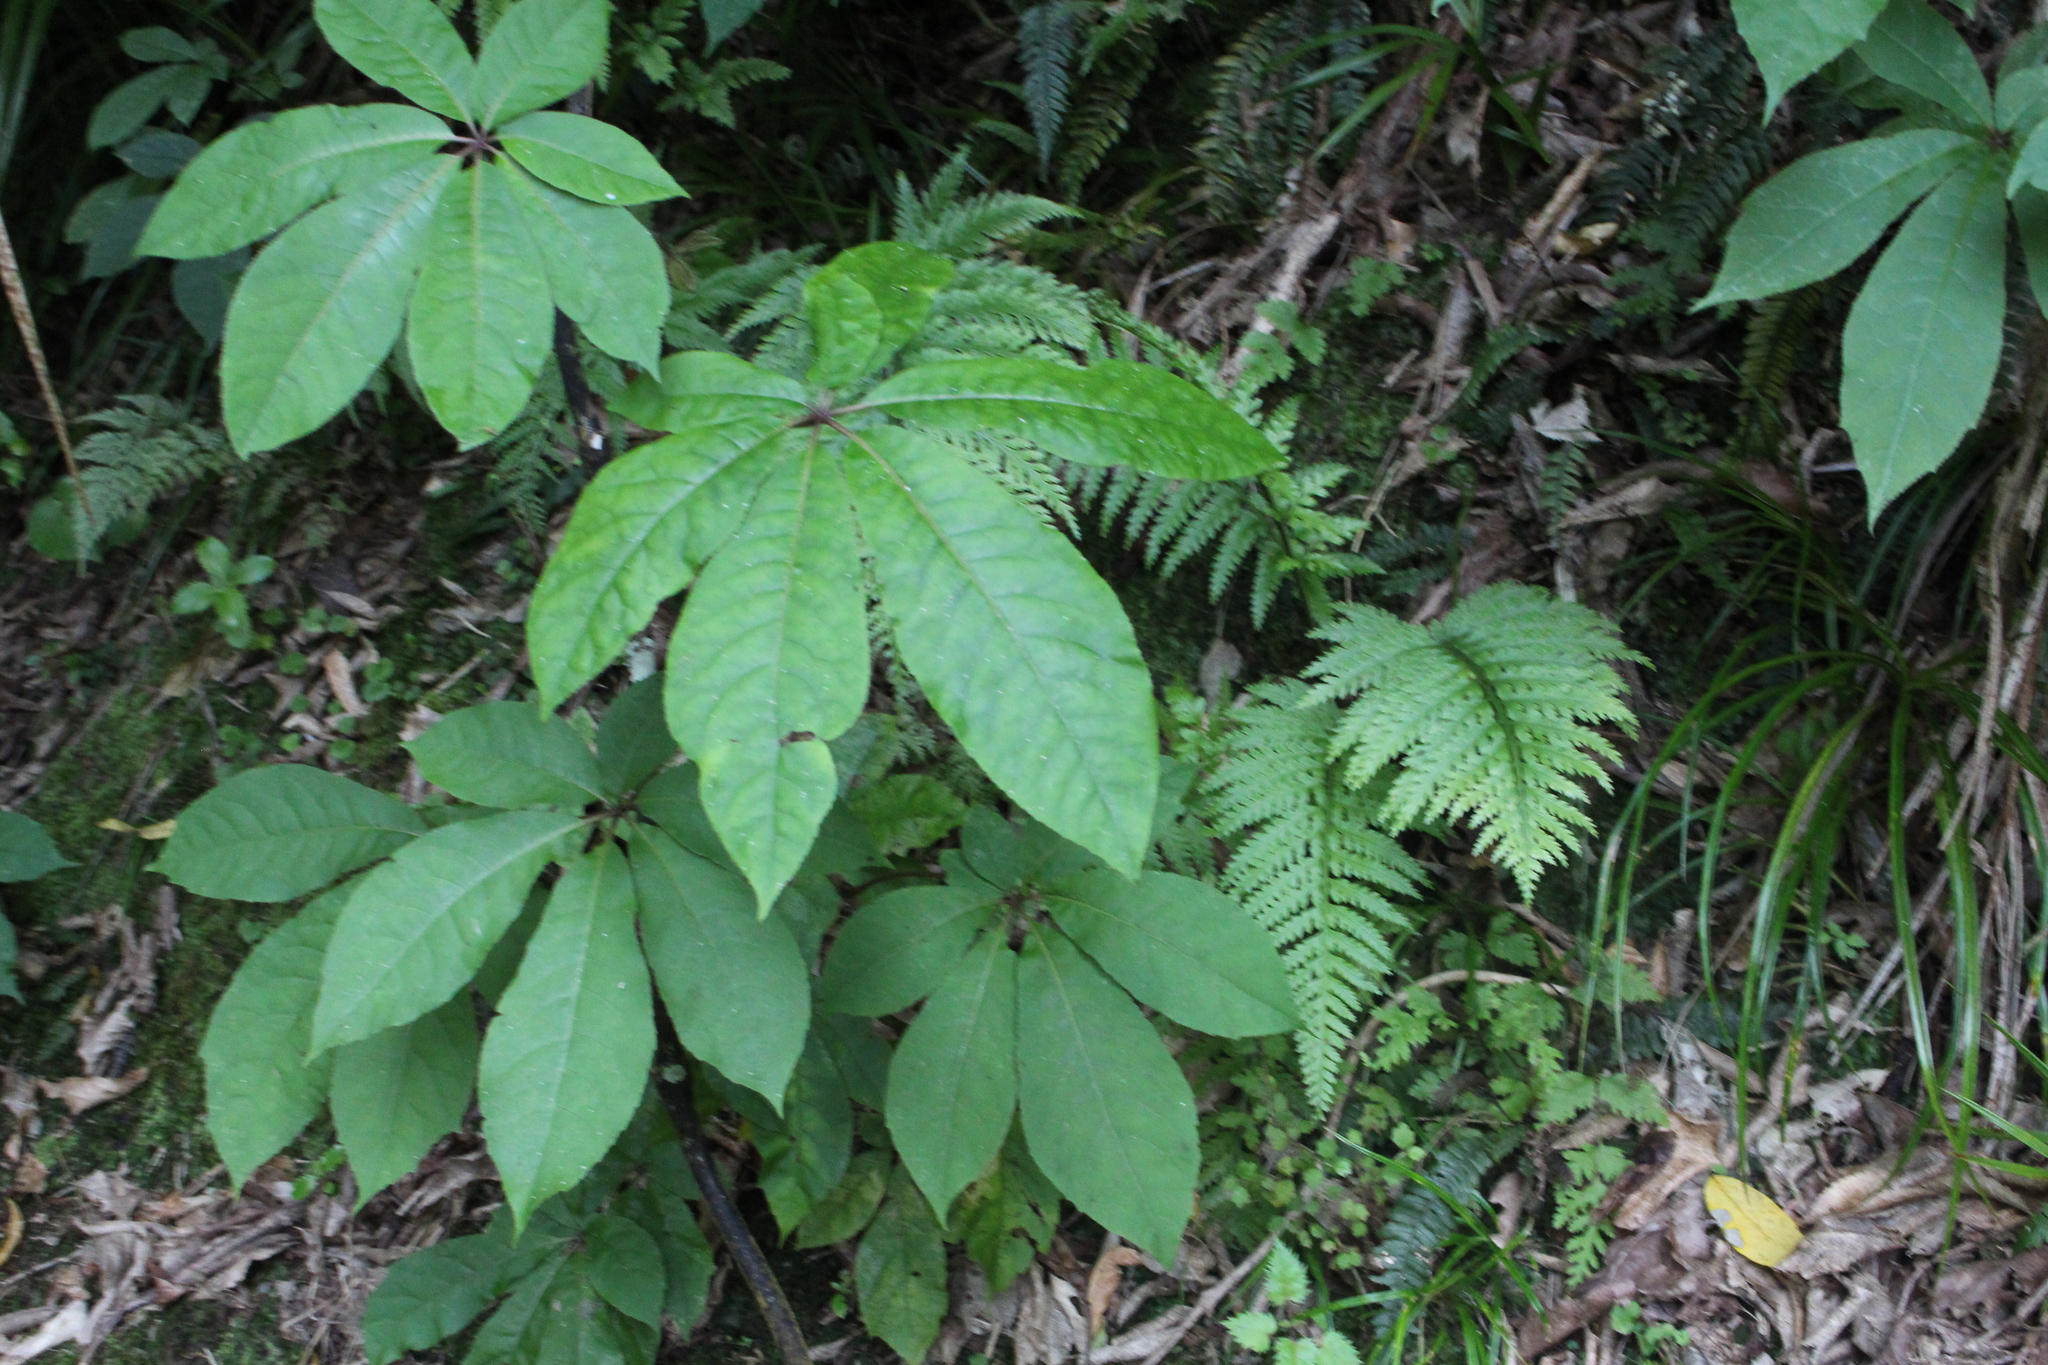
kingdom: Plantae
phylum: Tracheophyta
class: Magnoliopsida
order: Apiales
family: Araliaceae
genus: Schefflera
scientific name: Schefflera digitata
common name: Pate
